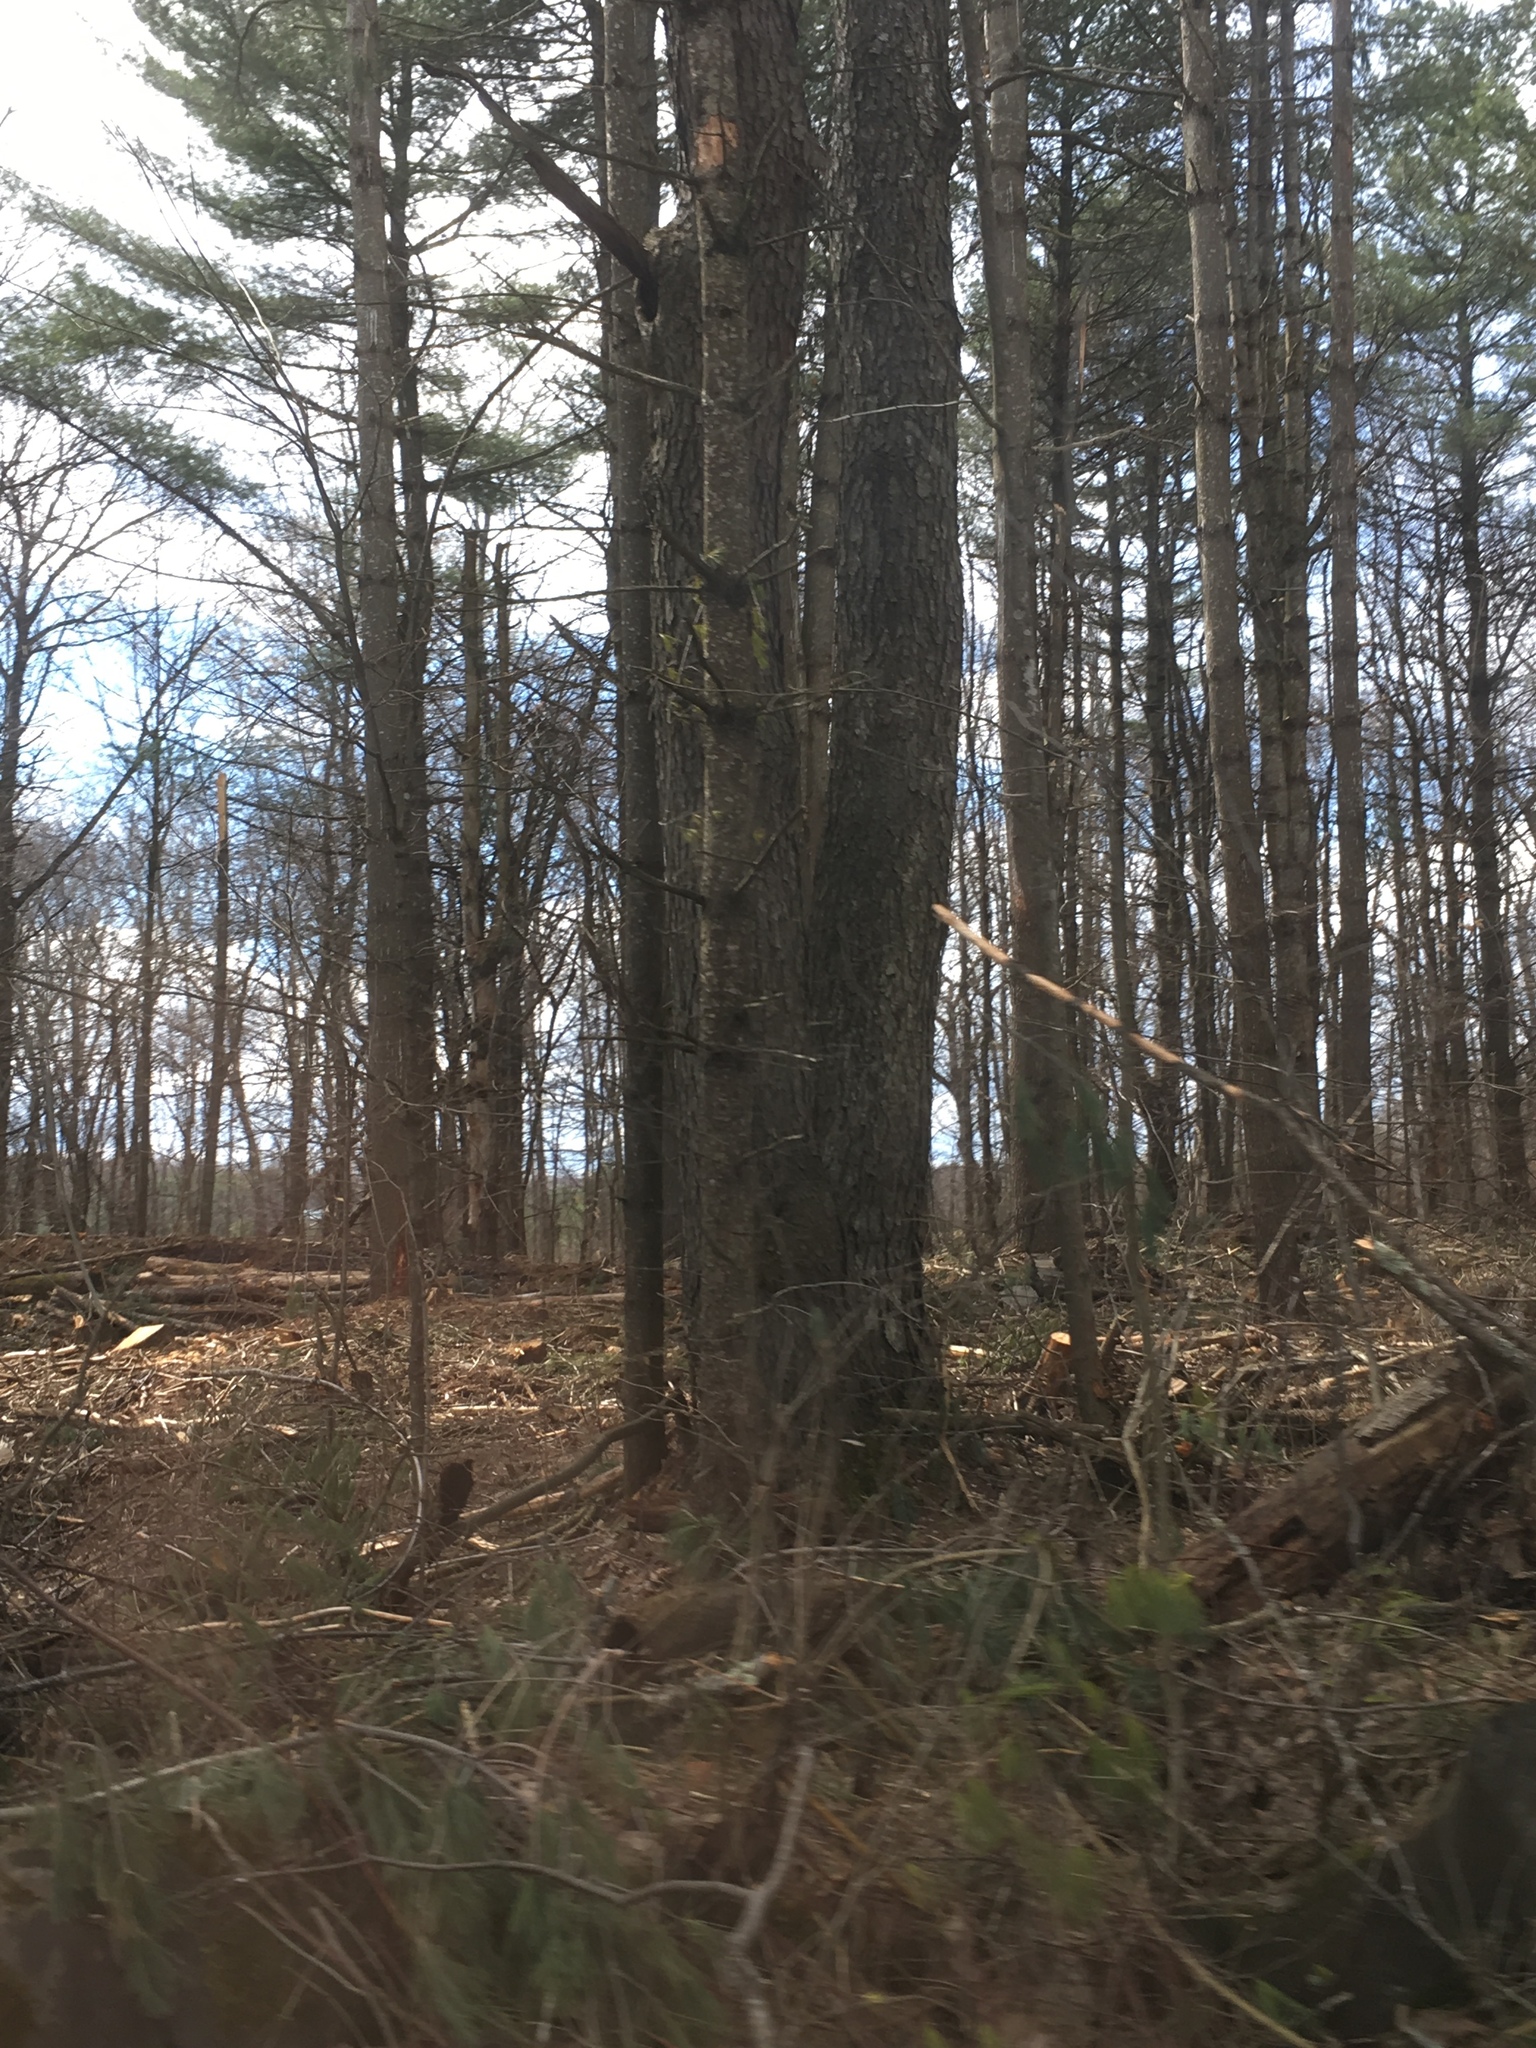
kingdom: Plantae
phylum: Tracheophyta
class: Magnoliopsida
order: Rosales
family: Rosaceae
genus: Prunus
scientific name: Prunus serotina
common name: Black cherry
